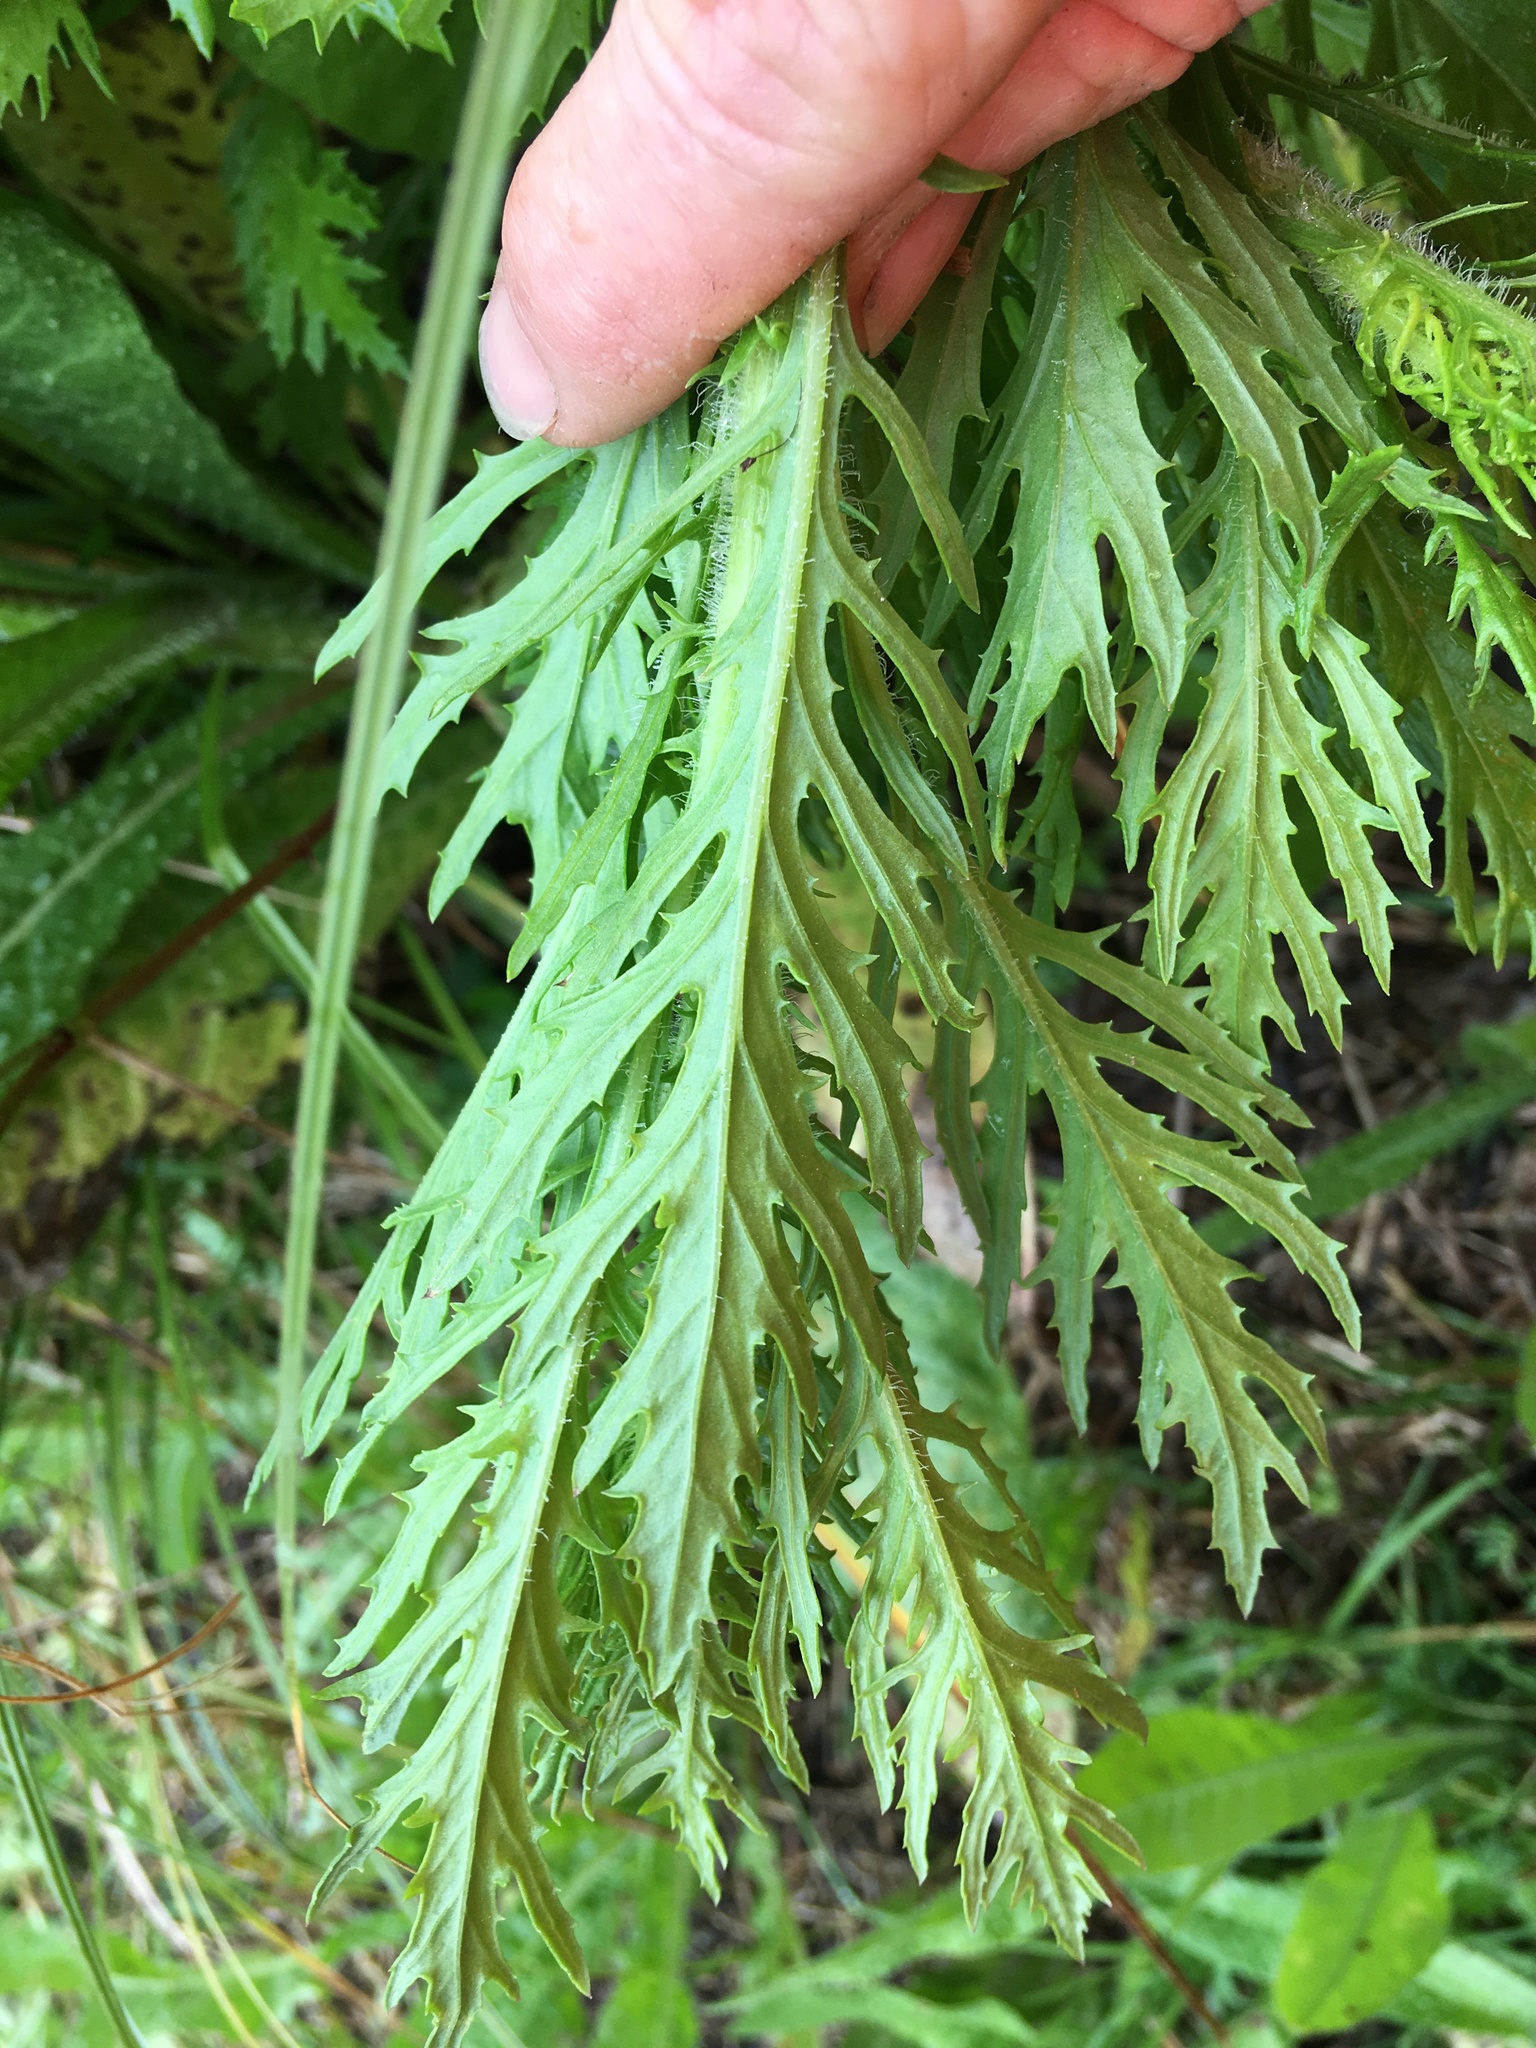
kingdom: Plantae
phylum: Tracheophyta
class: Magnoliopsida
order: Asterales
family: Asteraceae
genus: Senecio
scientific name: Senecio esleri
